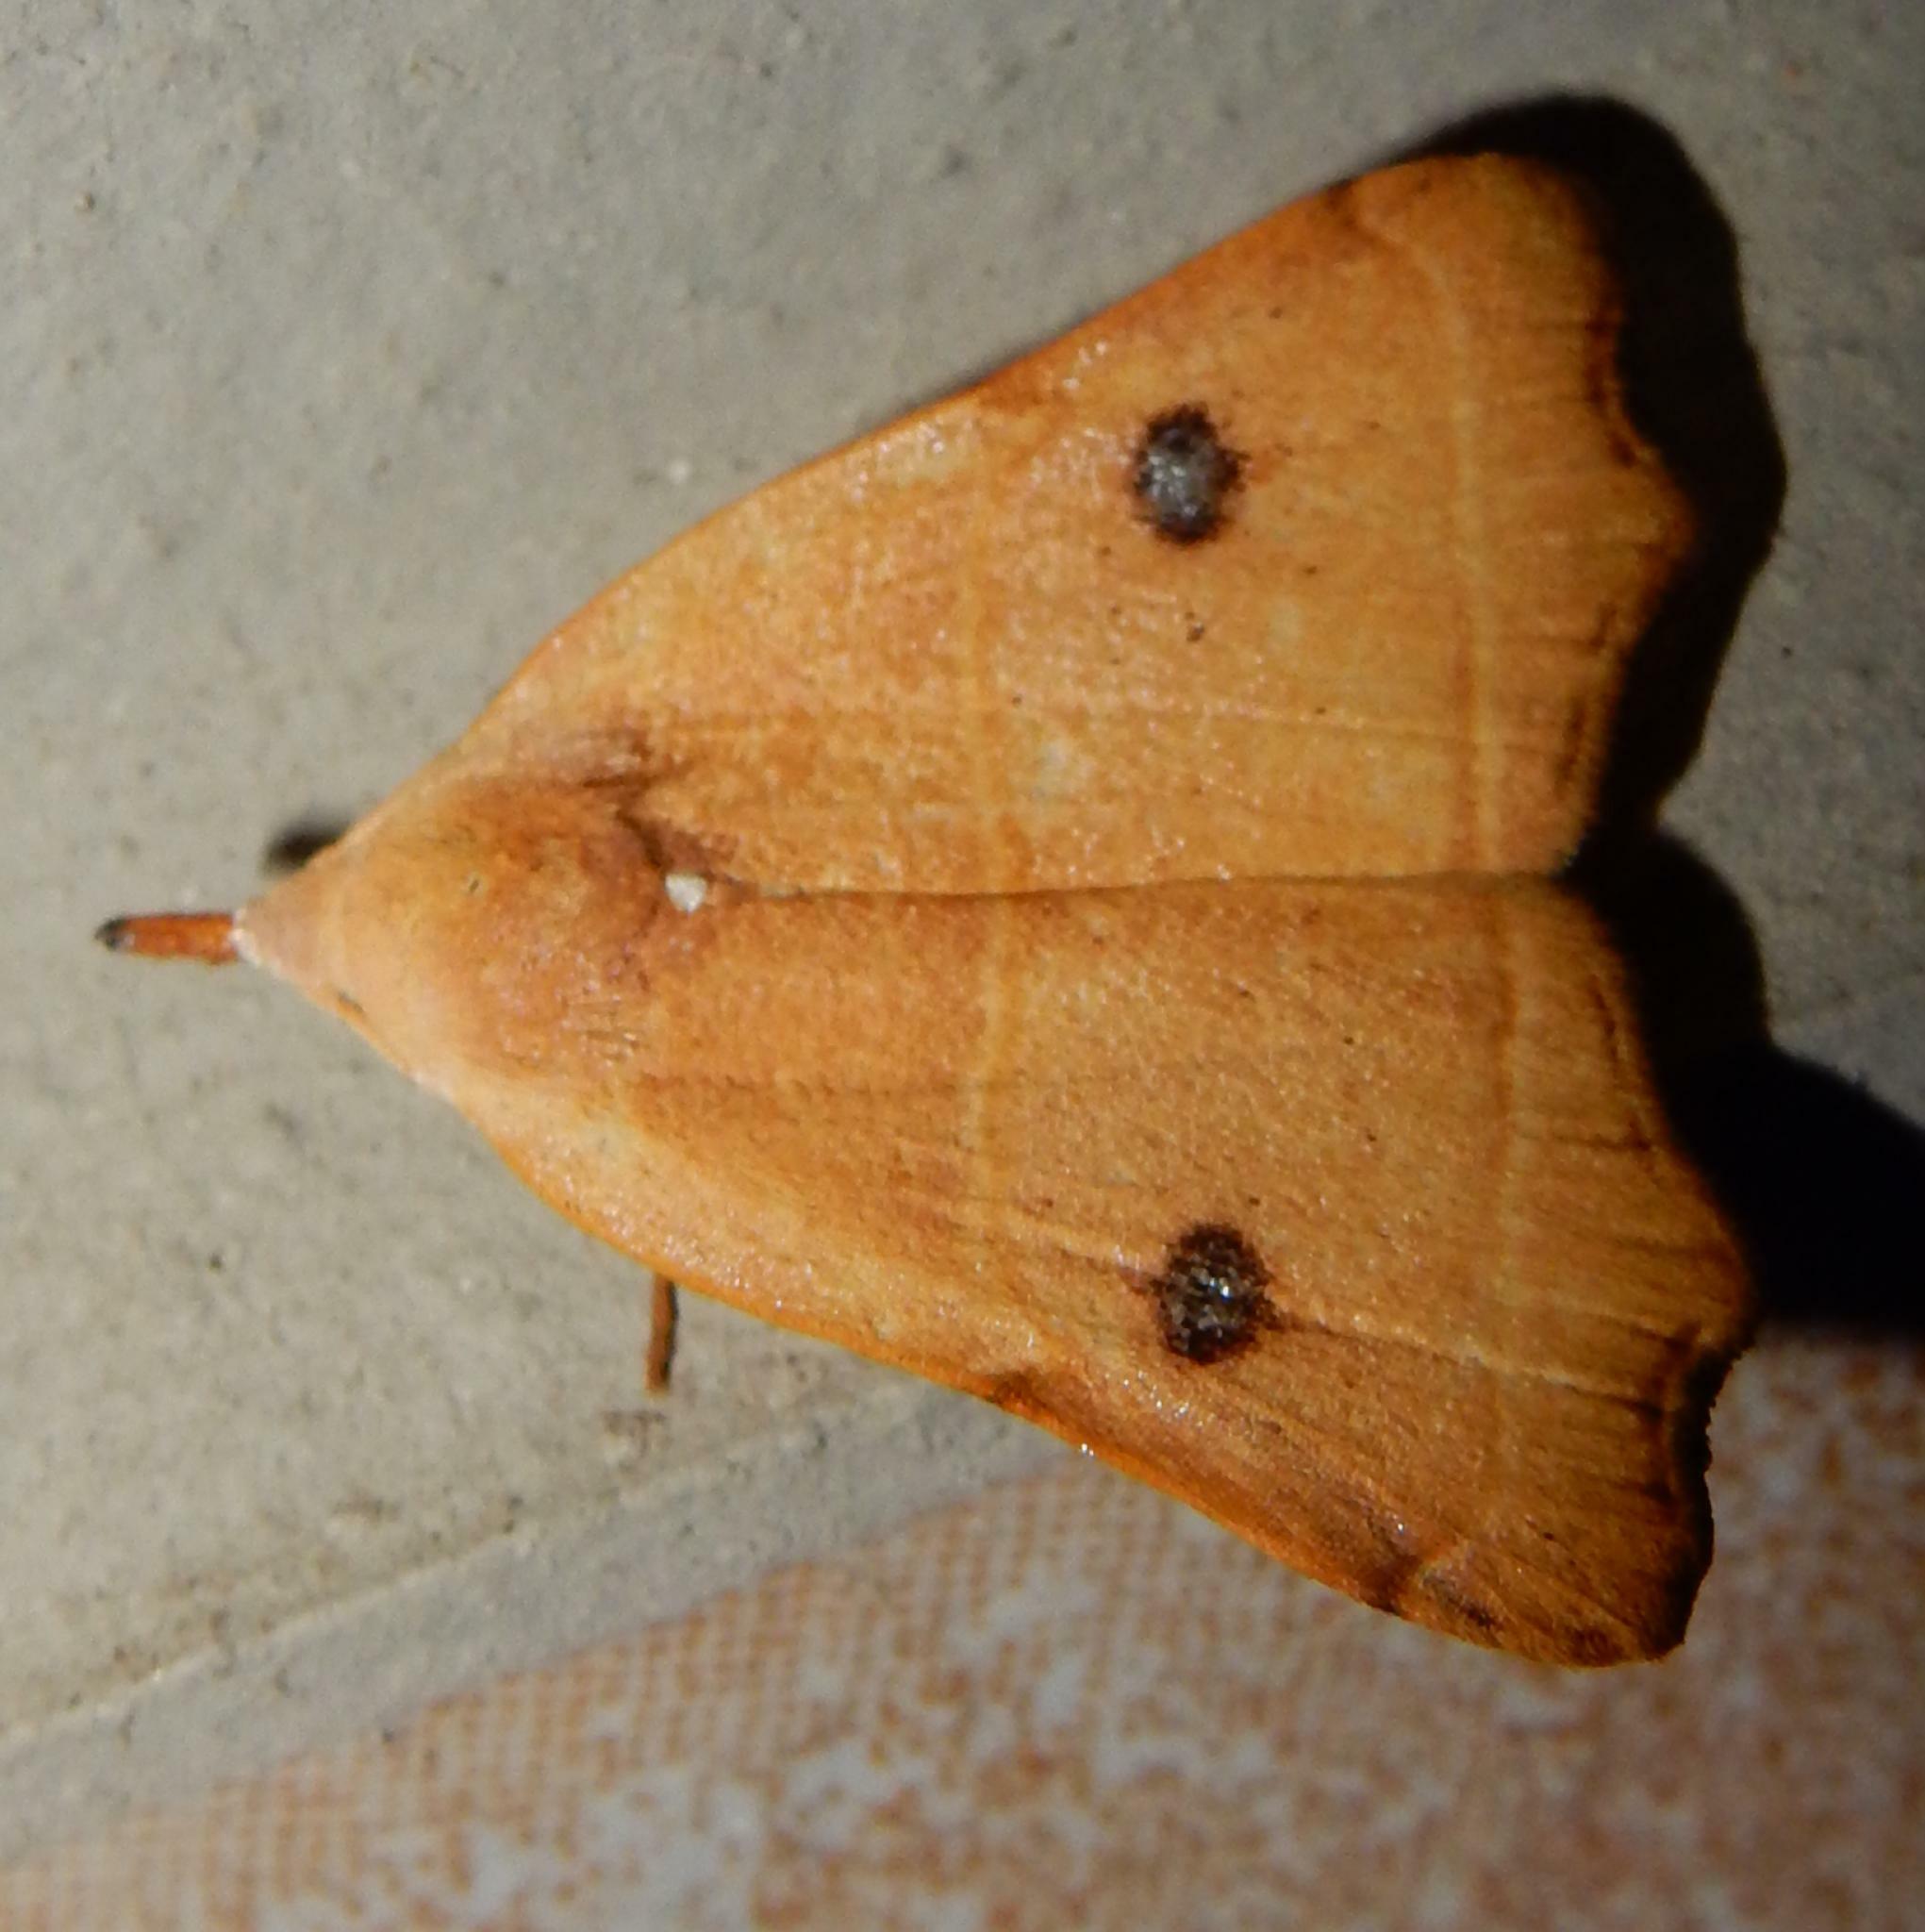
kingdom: Animalia
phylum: Arthropoda
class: Insecta
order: Lepidoptera
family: Erebidae
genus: Hondryches
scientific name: Hondryches phalaeniformis
